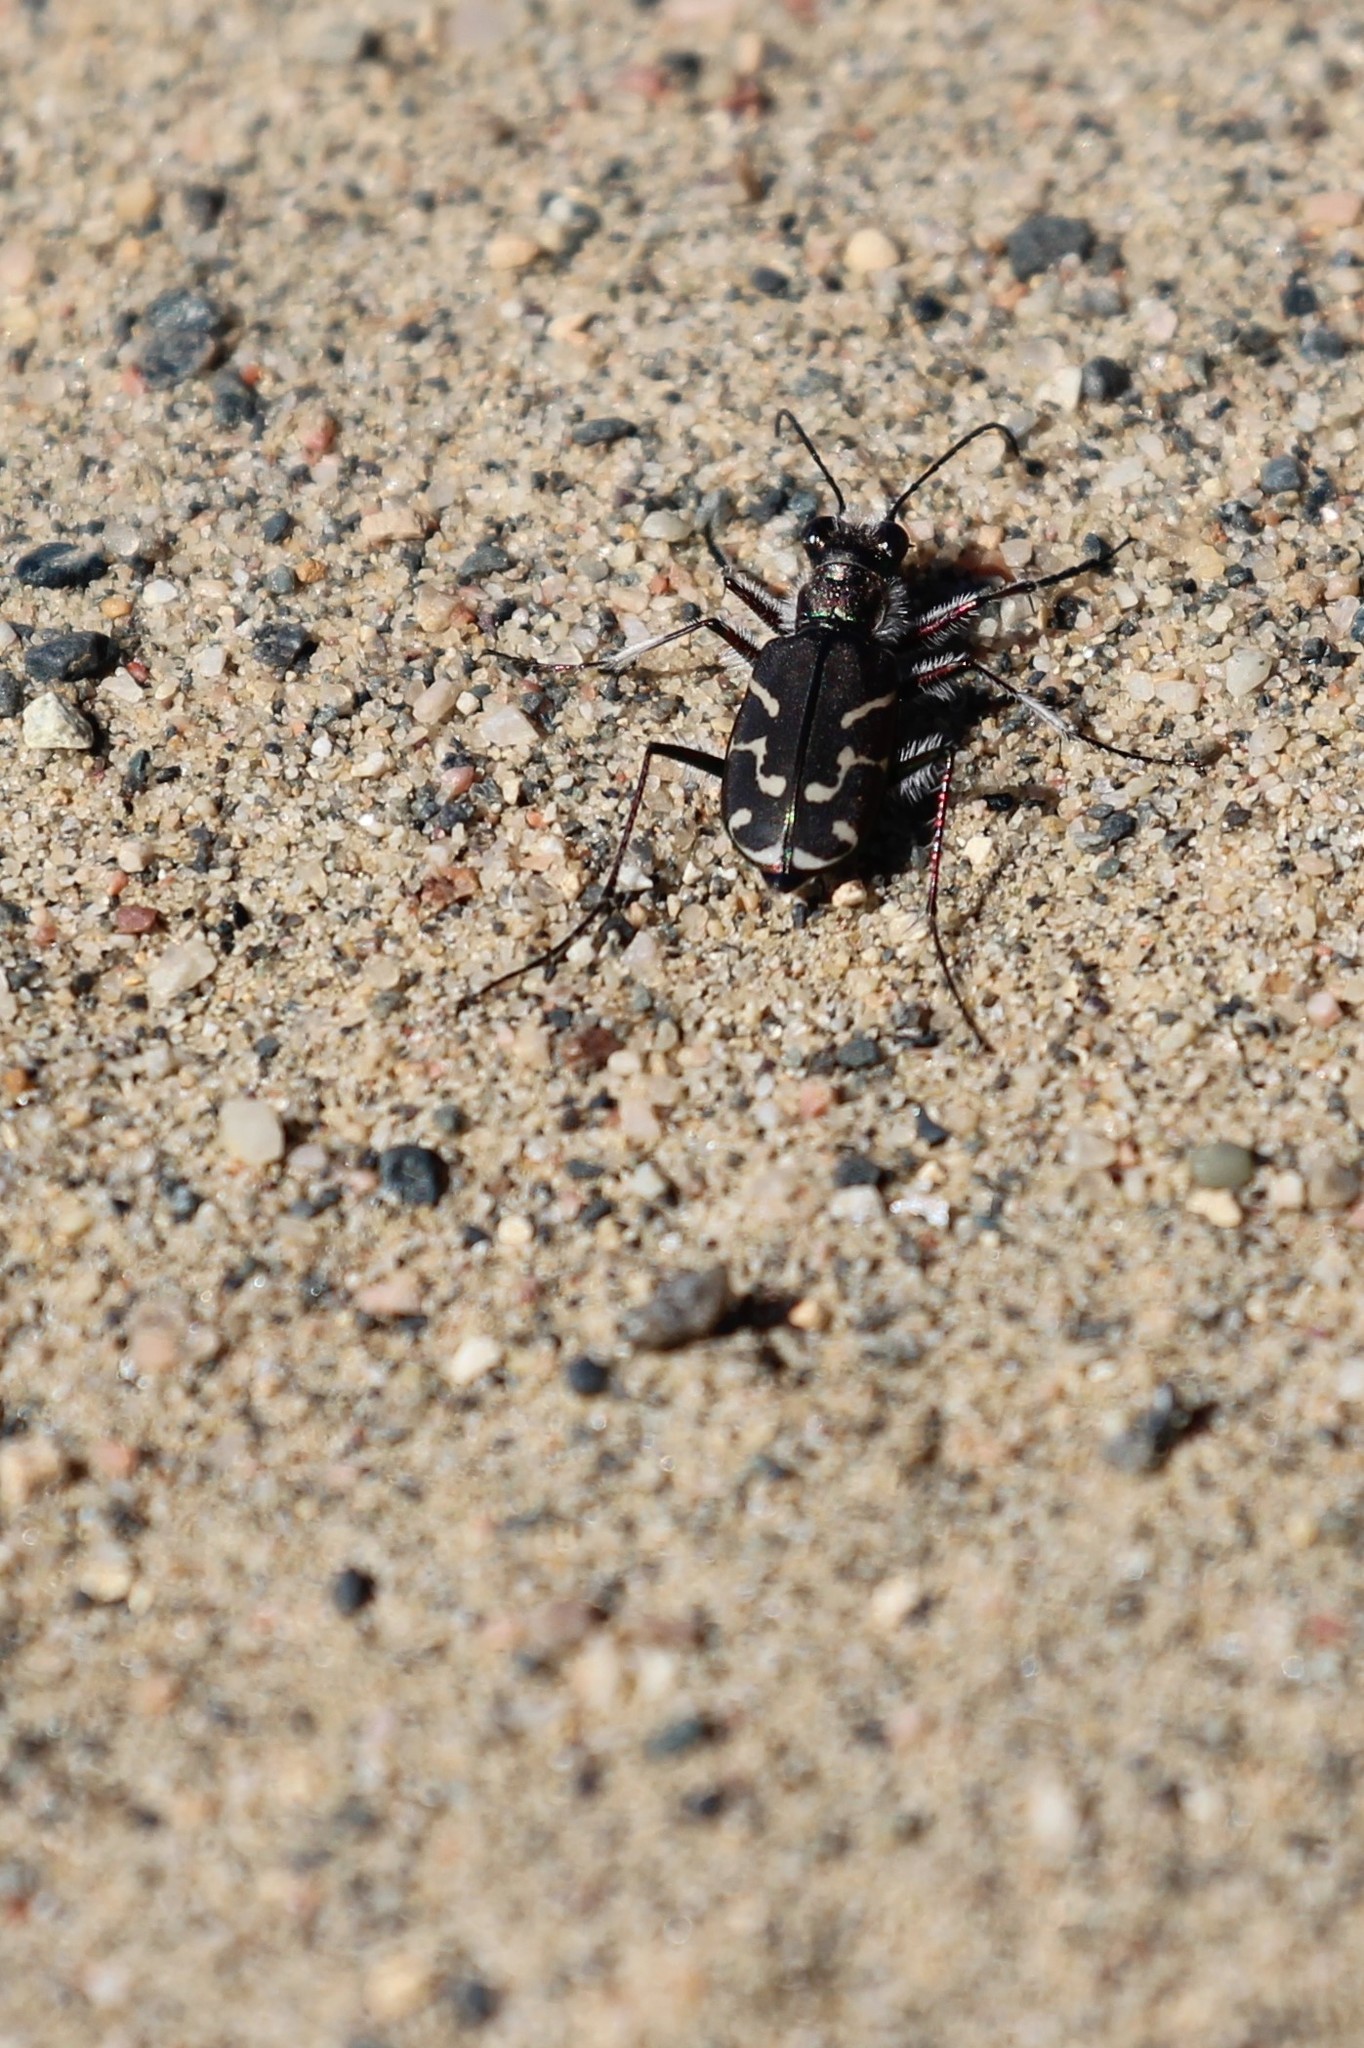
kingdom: Animalia
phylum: Arthropoda
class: Insecta
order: Coleoptera
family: Carabidae
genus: Cicindela
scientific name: Cicindela tranquebarica
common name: Oblique-lined tiger beetle
